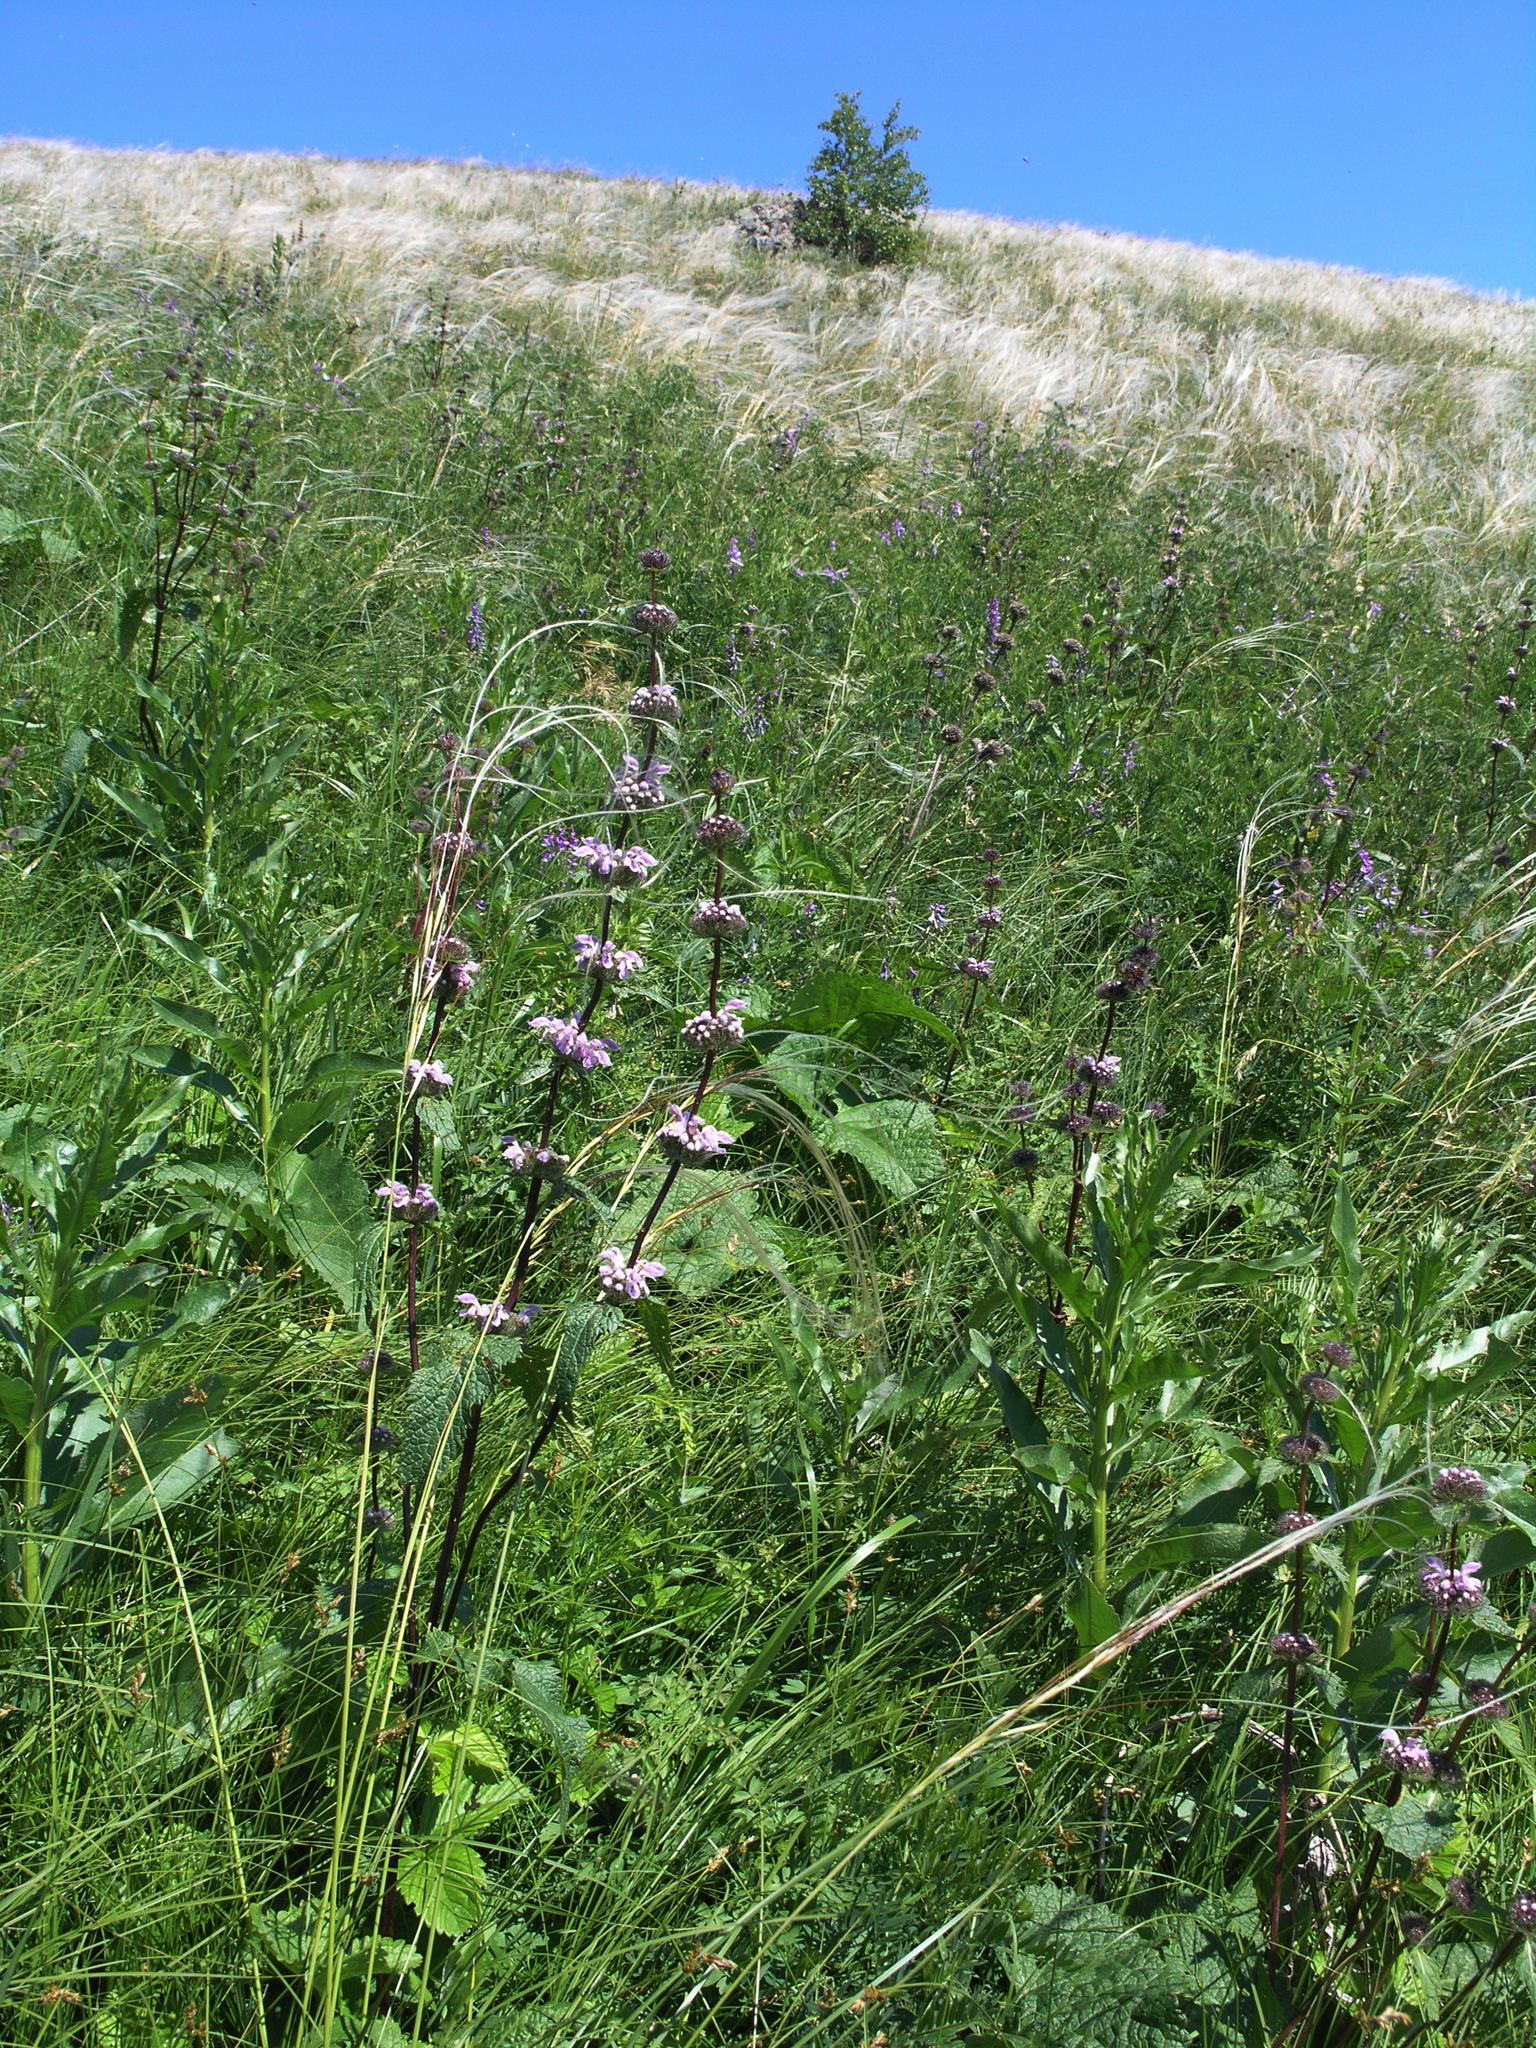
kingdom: Plantae
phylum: Tracheophyta
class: Magnoliopsida
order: Lamiales
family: Lamiaceae
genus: Phlomoides
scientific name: Phlomoides tuberosa
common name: Tuberous jerusalem sage
